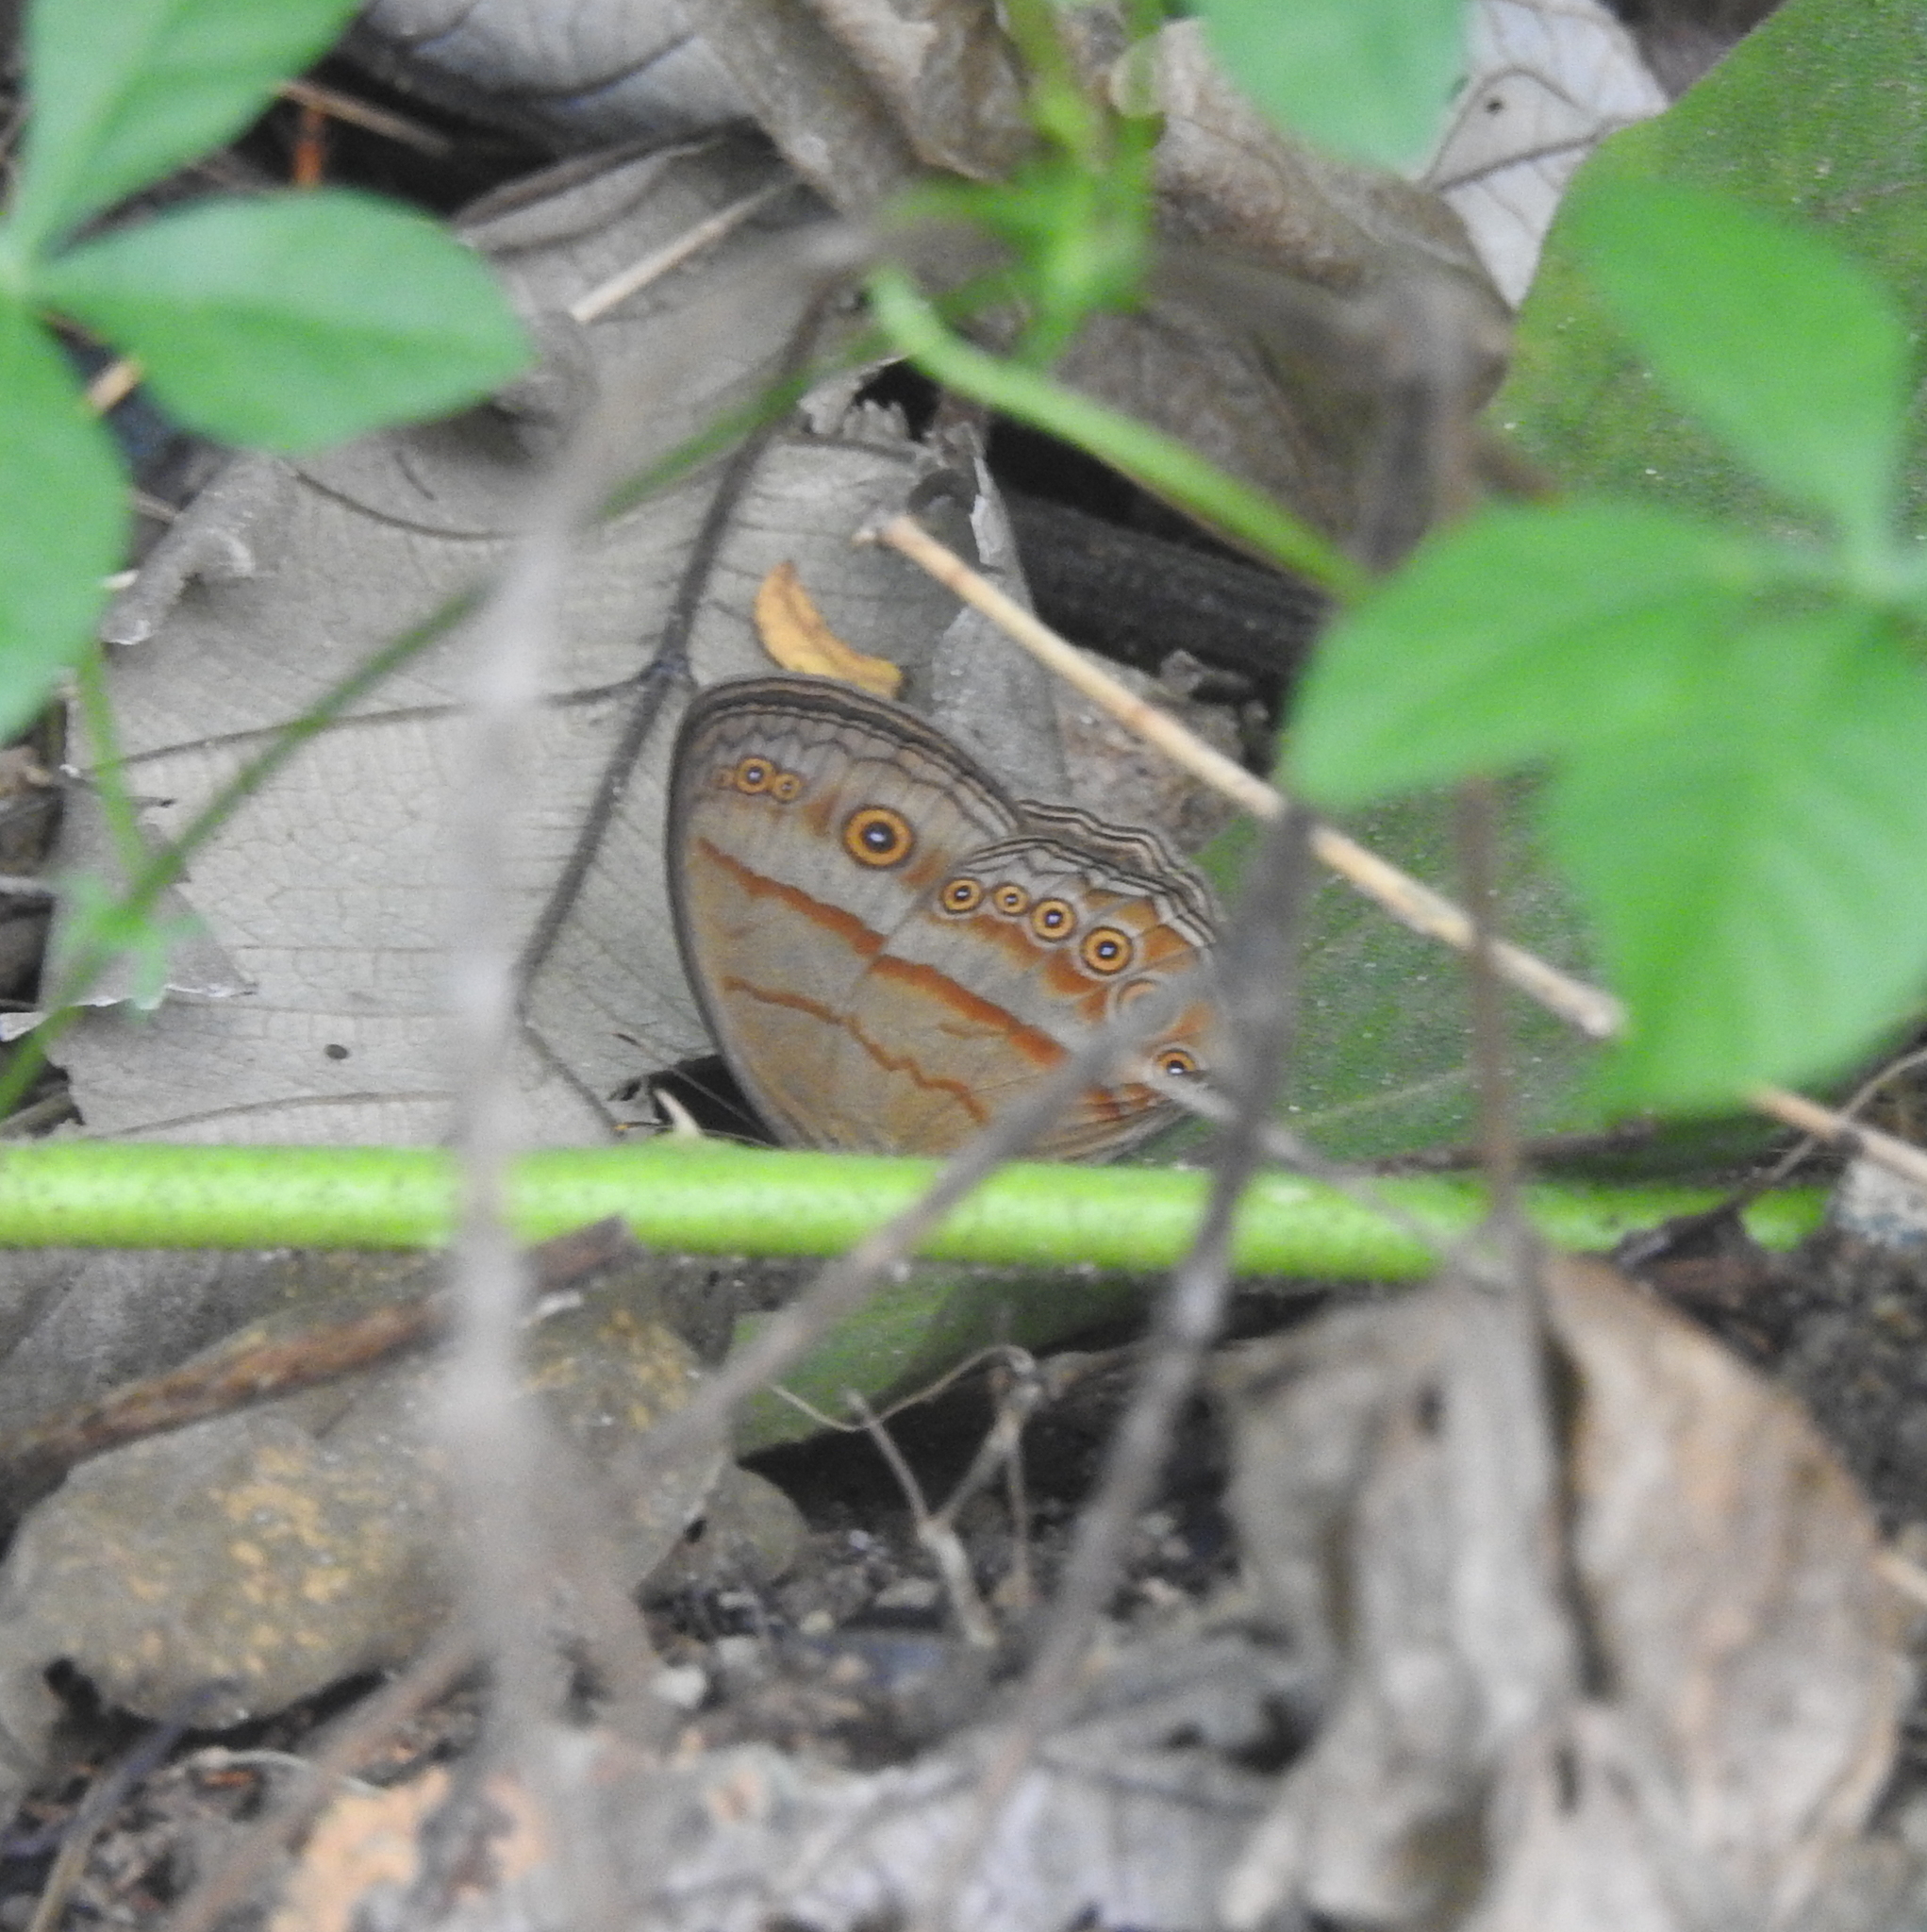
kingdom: Animalia
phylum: Arthropoda
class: Insecta
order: Lepidoptera
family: Nymphalidae
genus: Mycalesis
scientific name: Mycalesis fuscum
